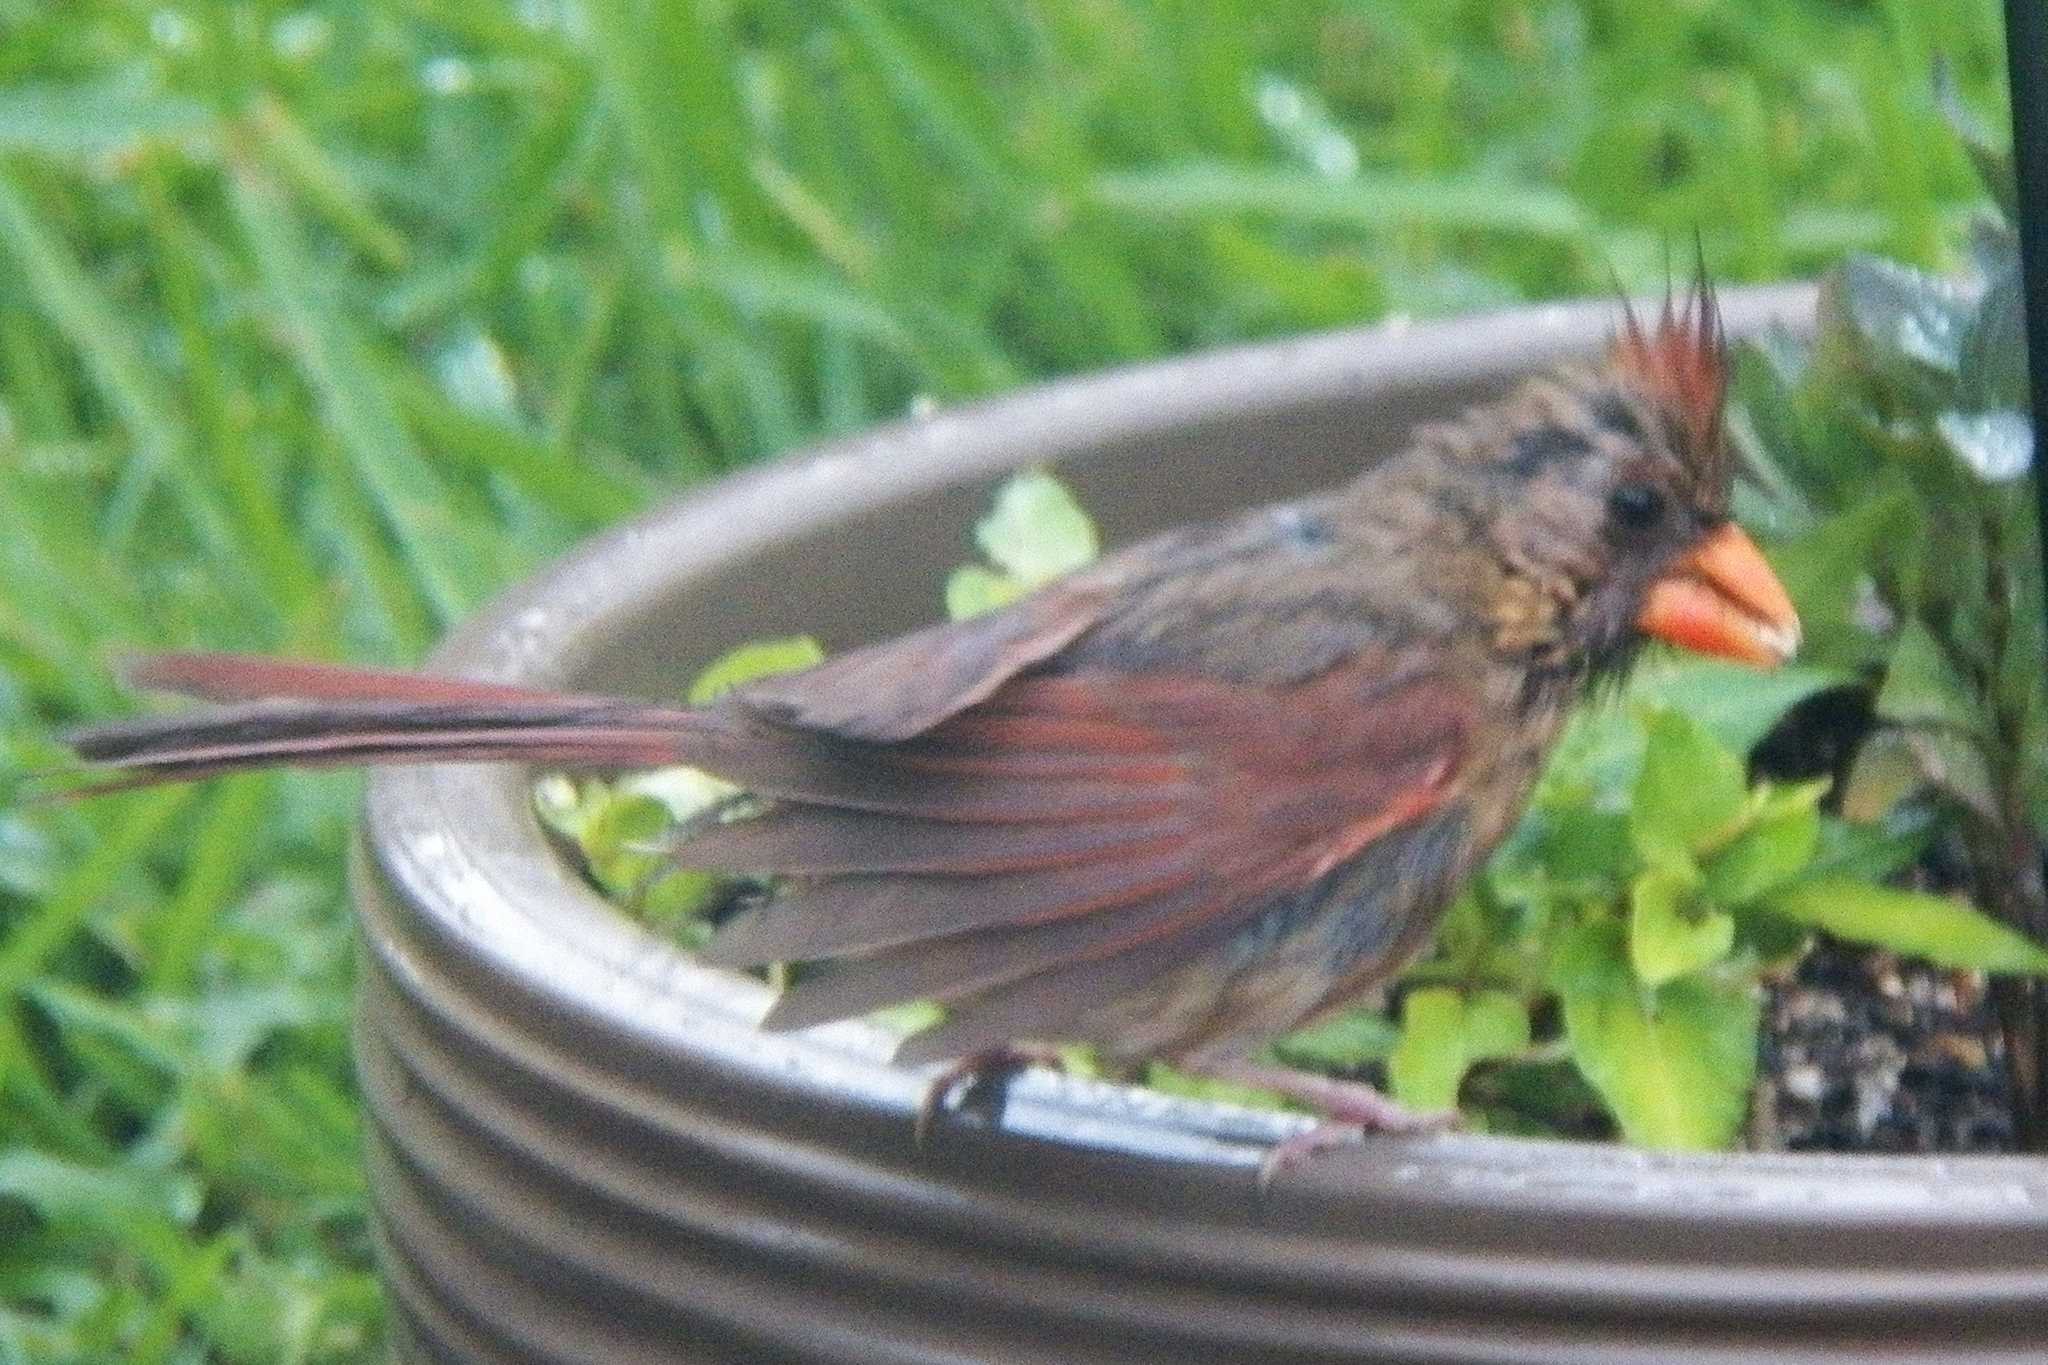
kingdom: Animalia
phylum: Chordata
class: Aves
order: Passeriformes
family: Cardinalidae
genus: Cardinalis
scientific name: Cardinalis cardinalis
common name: Northern cardinal
